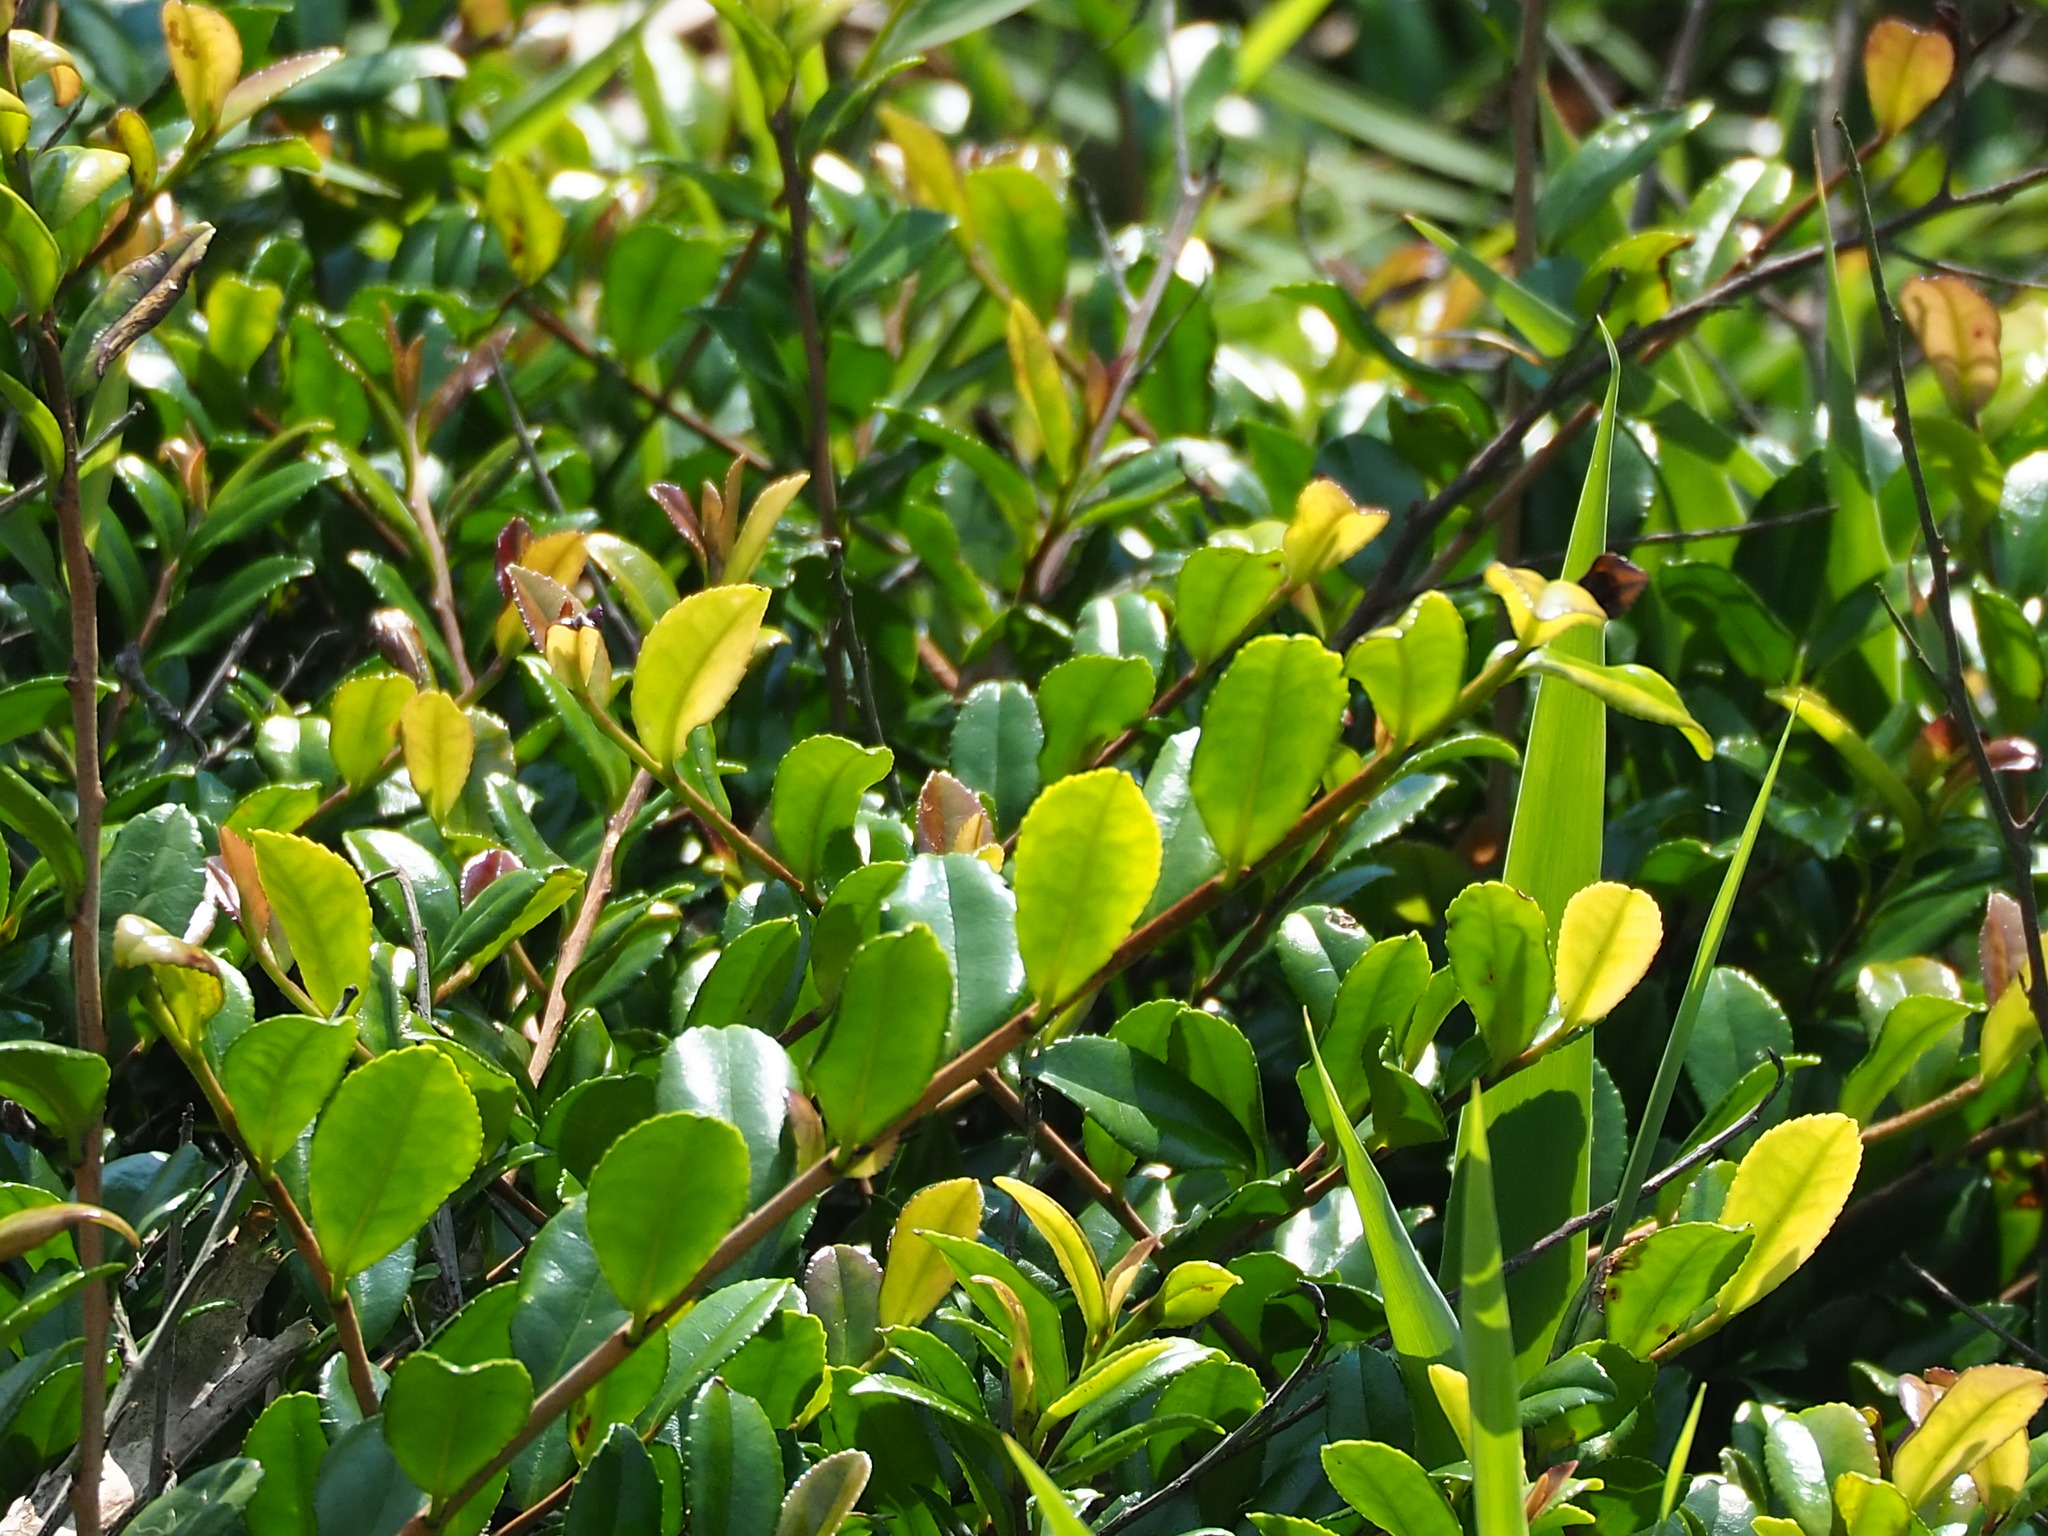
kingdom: Plantae
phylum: Tracheophyta
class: Magnoliopsida
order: Ericales
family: Pentaphylacaceae
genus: Eurya
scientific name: Eurya emarginata
